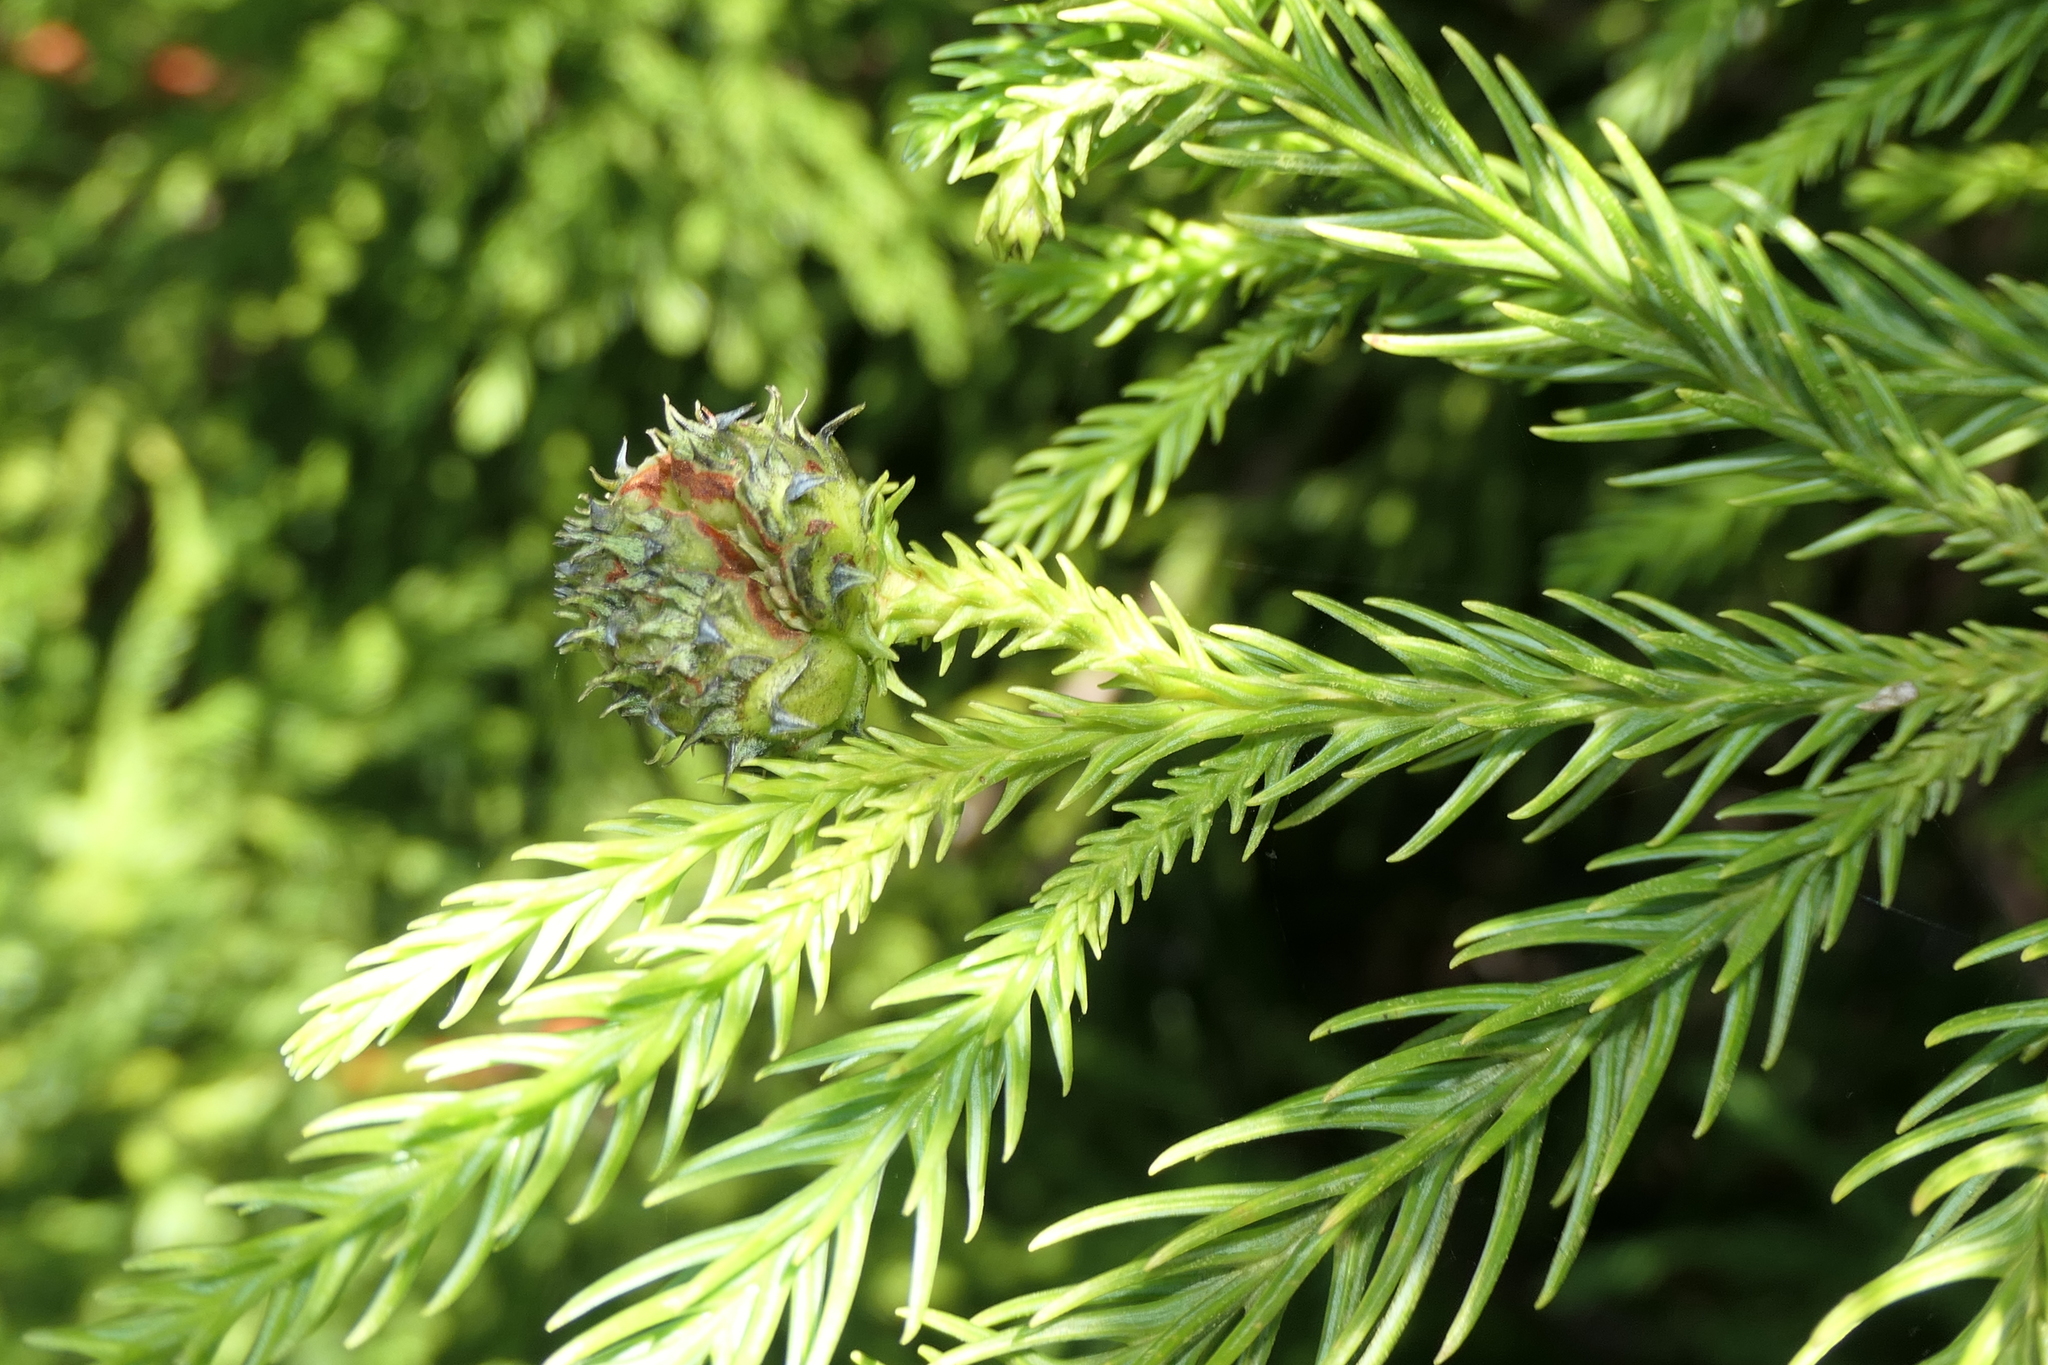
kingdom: Plantae
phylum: Tracheophyta
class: Pinopsida
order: Pinales
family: Cupressaceae
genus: Cryptomeria
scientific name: Cryptomeria japonica
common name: Japanese cedar
